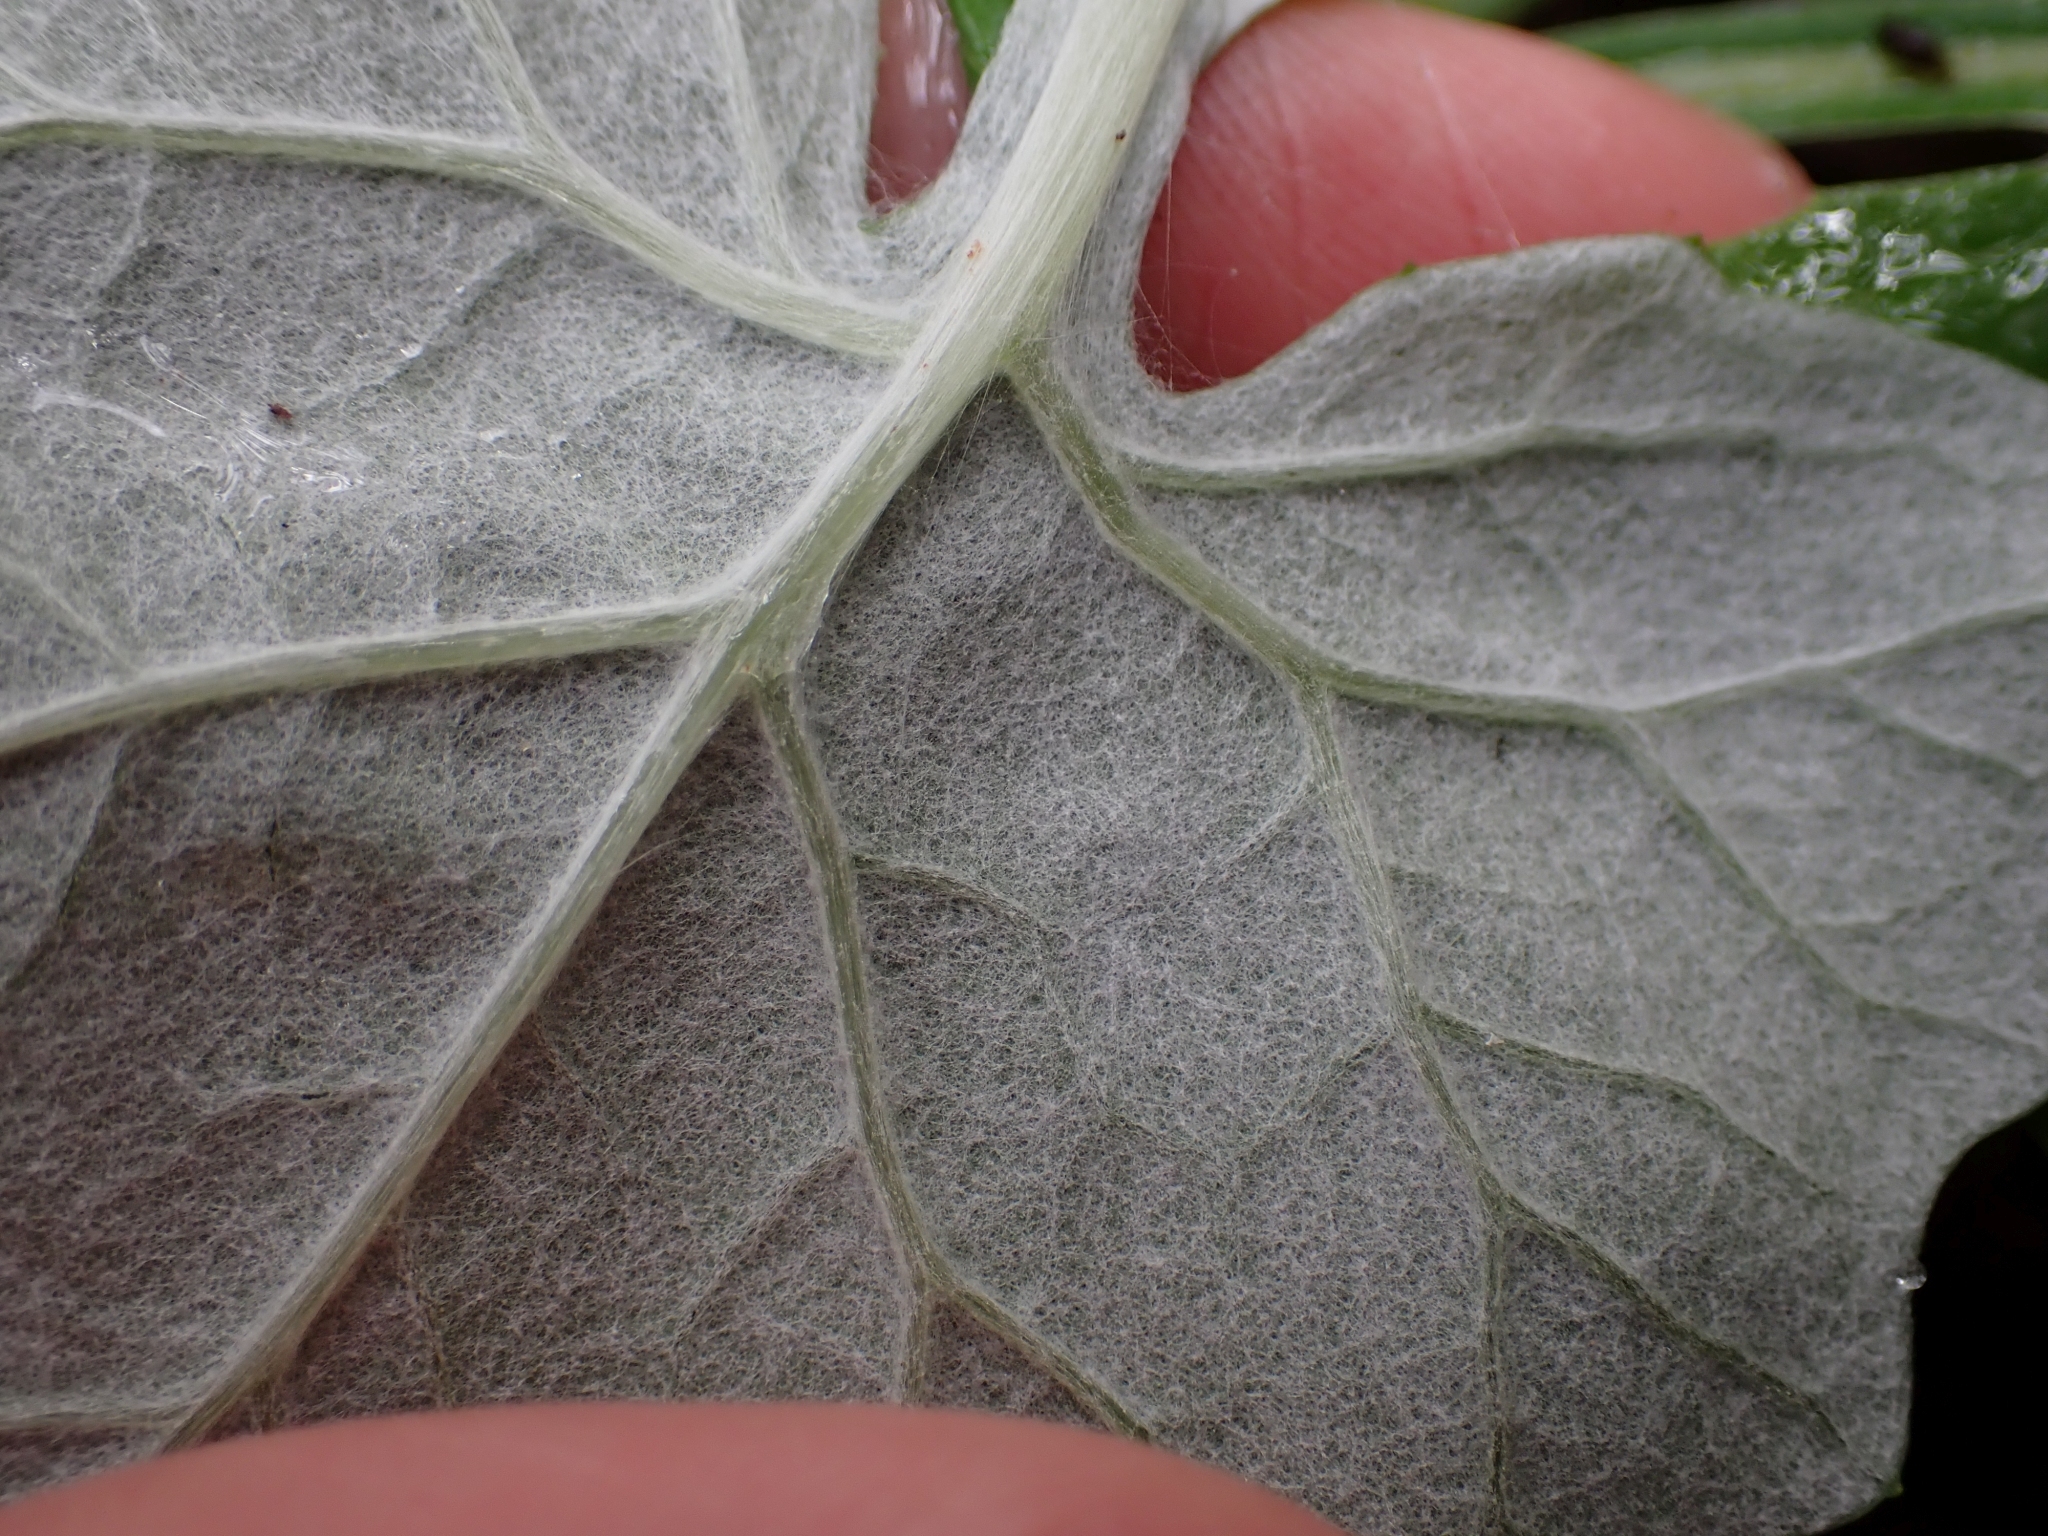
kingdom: Plantae
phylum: Tracheophyta
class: Magnoliopsida
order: Asterales
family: Asteraceae
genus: Adenocaulon
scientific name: Adenocaulon bicolor
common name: Trailplant
